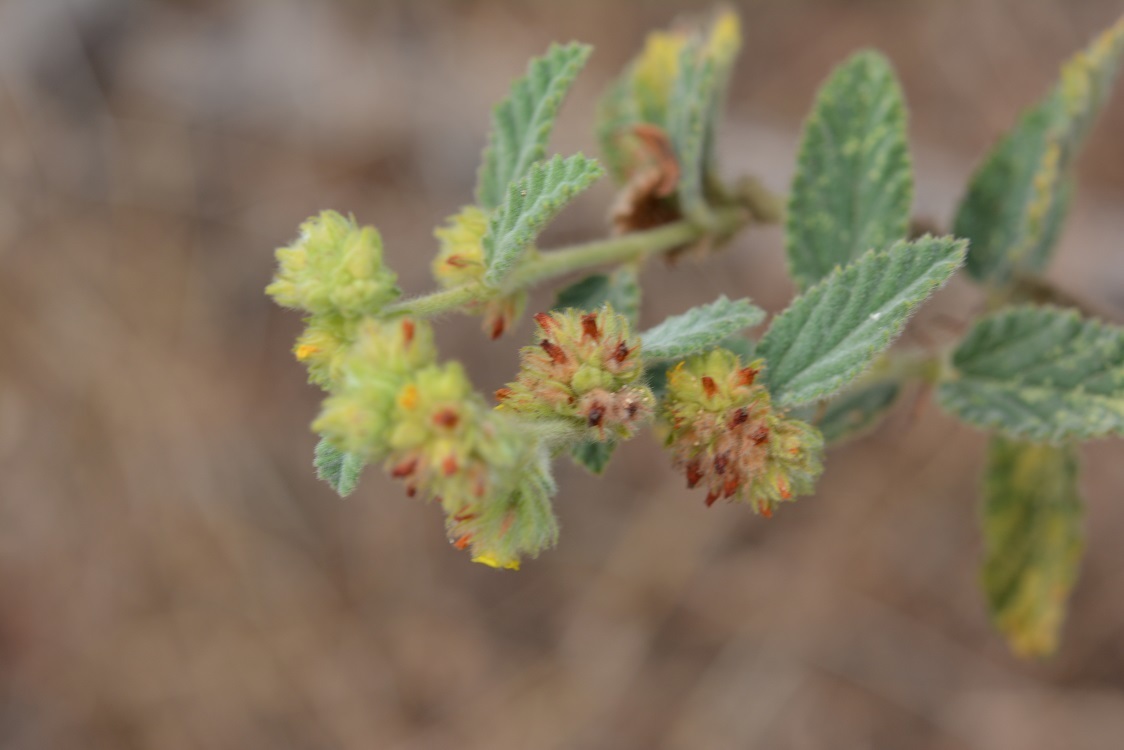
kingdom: Plantae
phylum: Tracheophyta
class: Magnoliopsida
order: Malvales
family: Malvaceae
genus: Waltheria
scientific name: Waltheria indica
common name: Leather-coat
